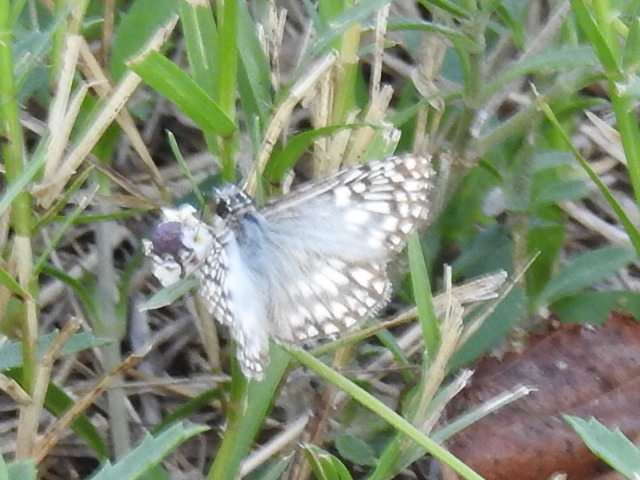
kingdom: Animalia
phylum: Arthropoda
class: Insecta
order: Lepidoptera
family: Hesperiidae
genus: Pyrgus
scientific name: Pyrgus oileus
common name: Tropical checkered-skipper
